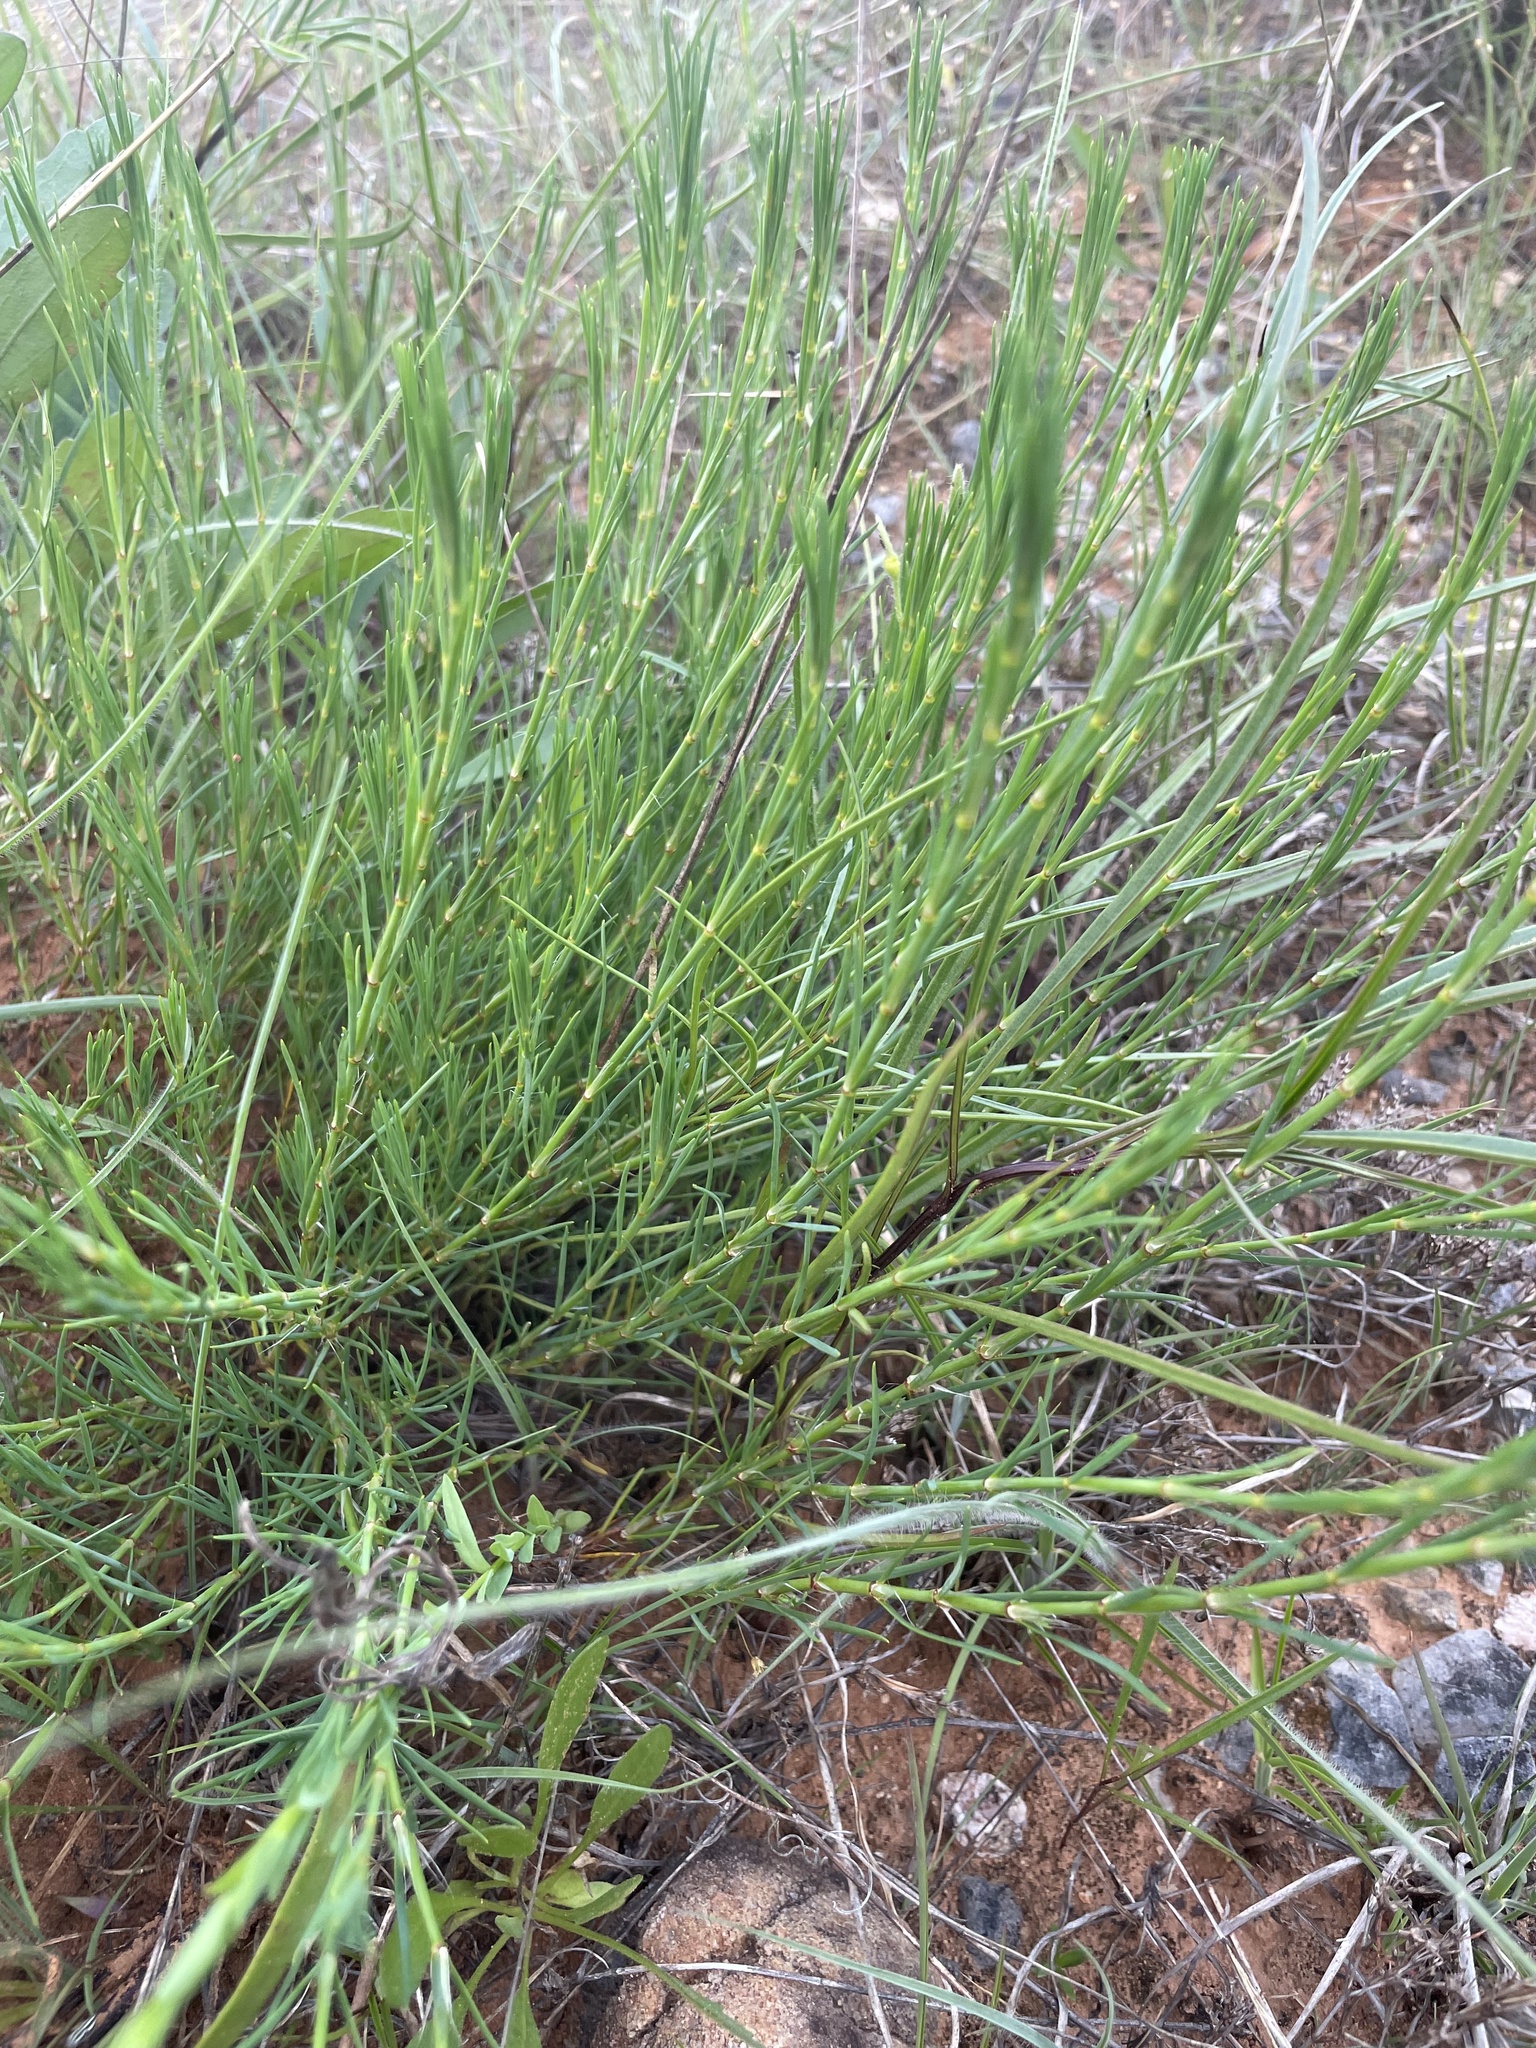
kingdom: Plantae
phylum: Tracheophyta
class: Magnoliopsida
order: Caryophyllales
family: Caryophyllaceae
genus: Paronychia
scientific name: Paronychia virginica
